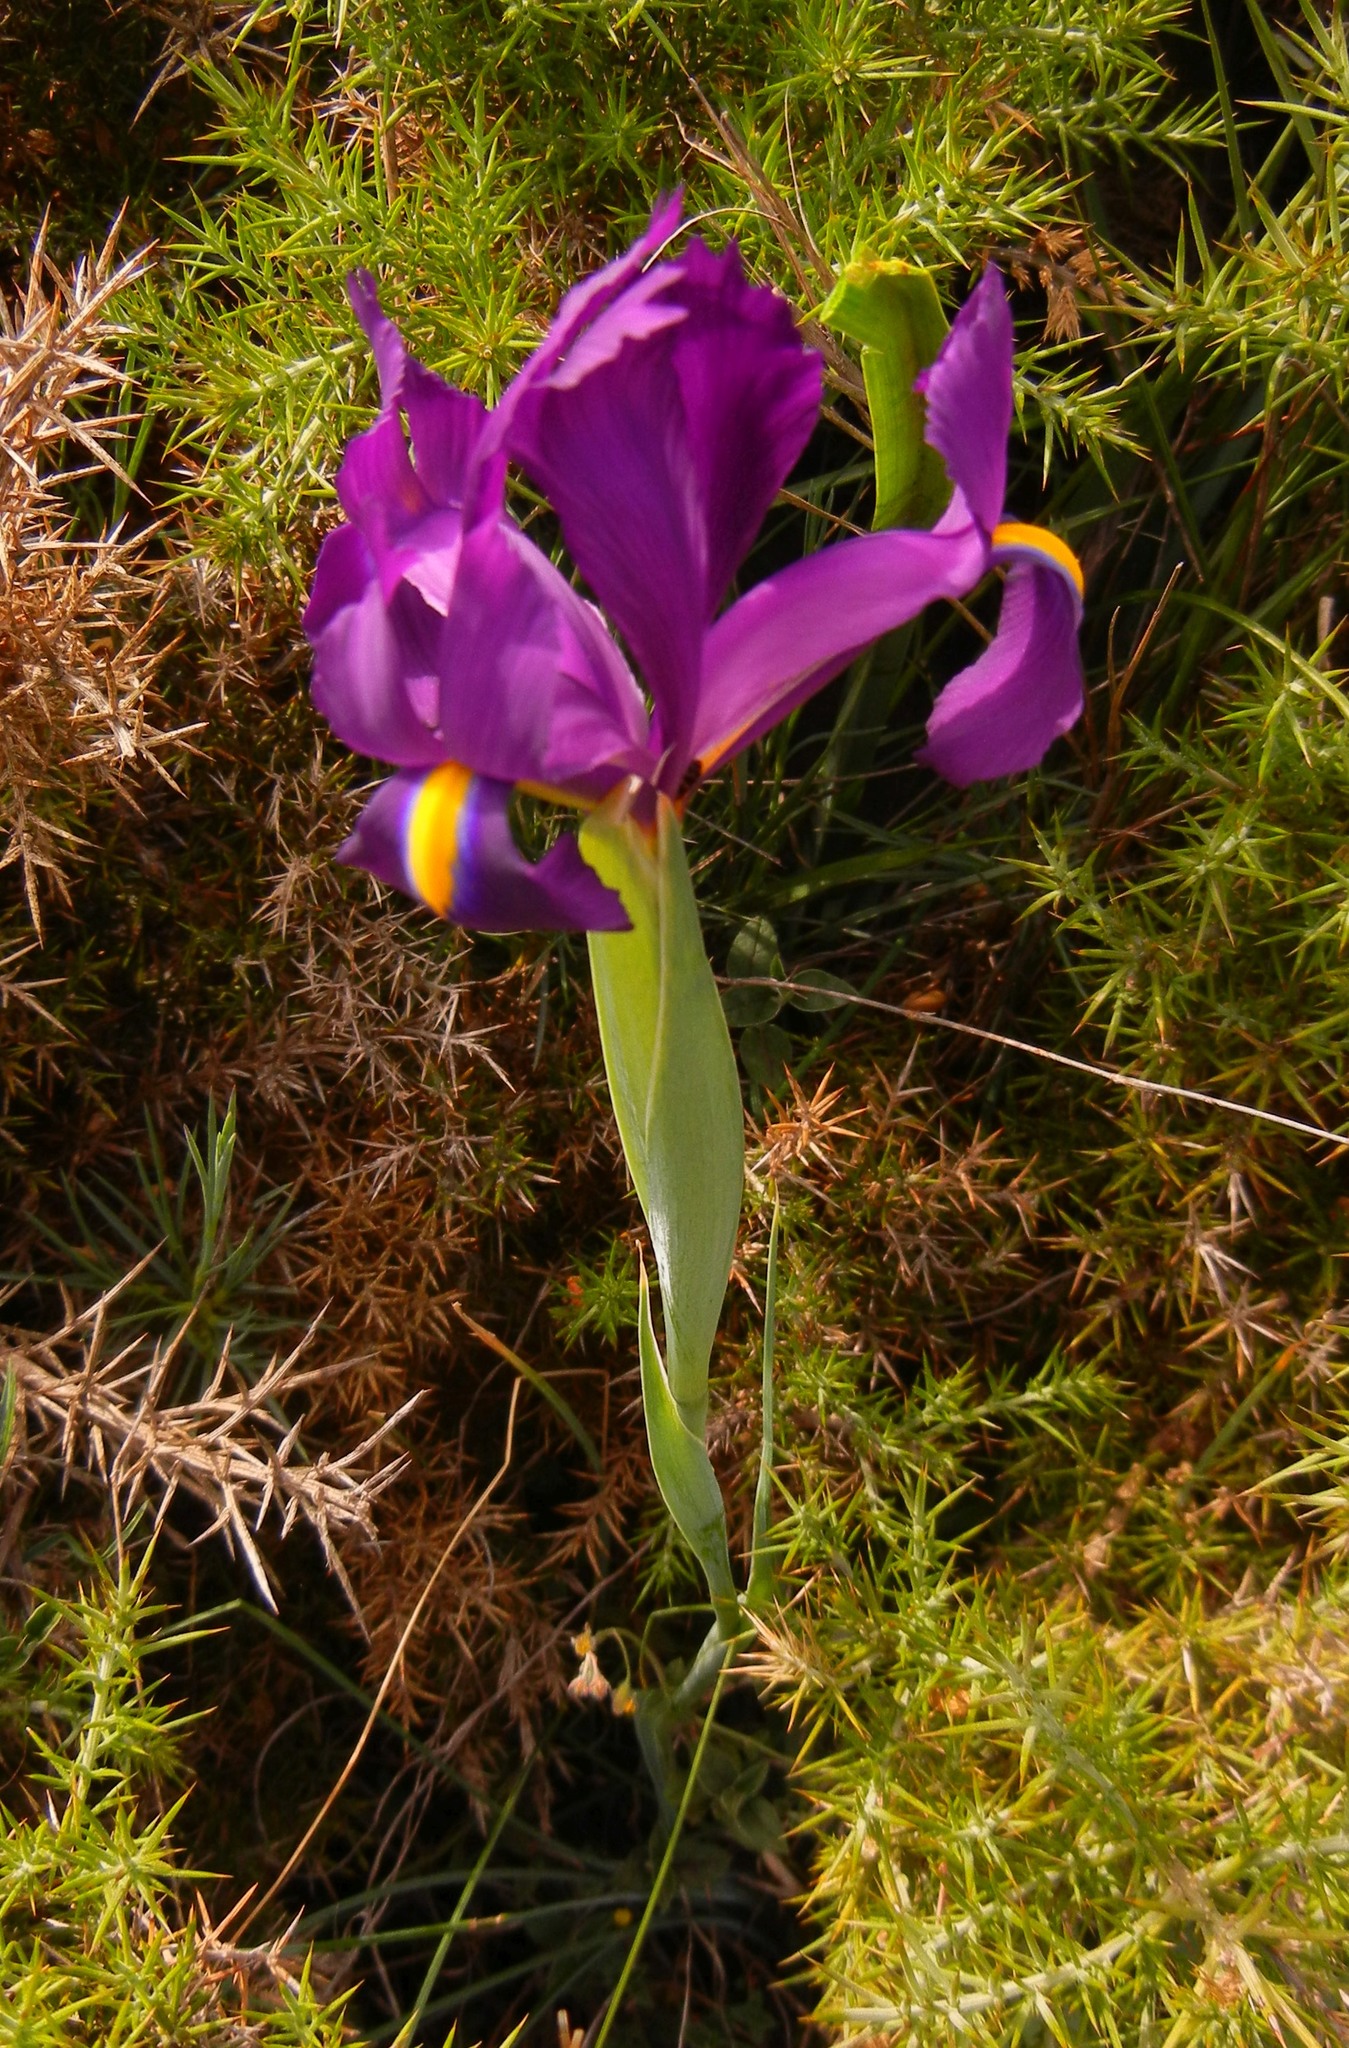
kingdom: Plantae
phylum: Tracheophyta
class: Liliopsida
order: Asparagales
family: Iridaceae
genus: Iris
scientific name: Iris filifolia
